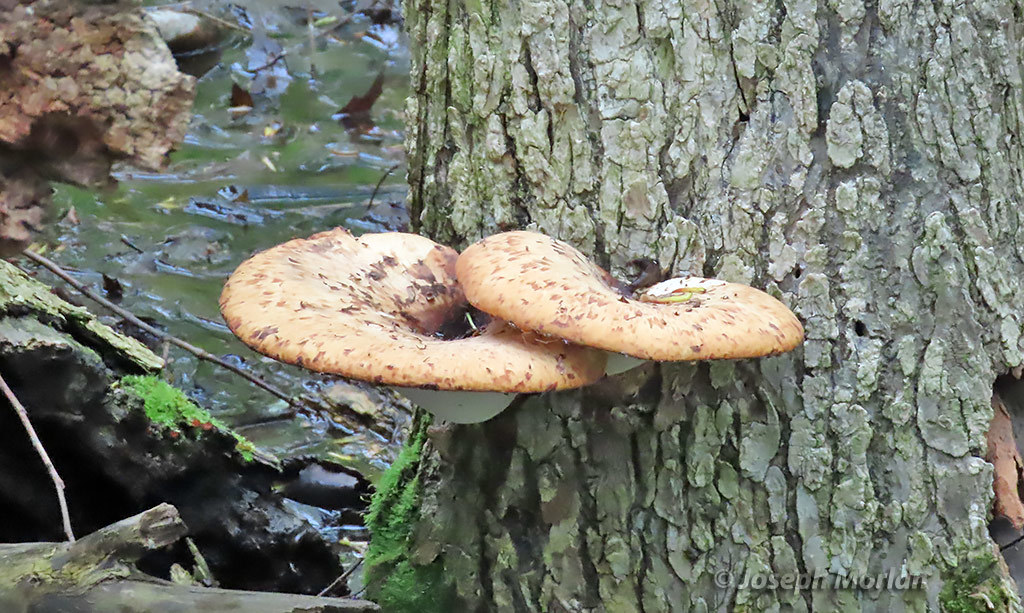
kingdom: Fungi
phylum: Basidiomycota
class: Agaricomycetes
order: Polyporales
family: Polyporaceae
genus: Cerioporus
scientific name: Cerioporus squamosus
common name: Dryad's saddle
